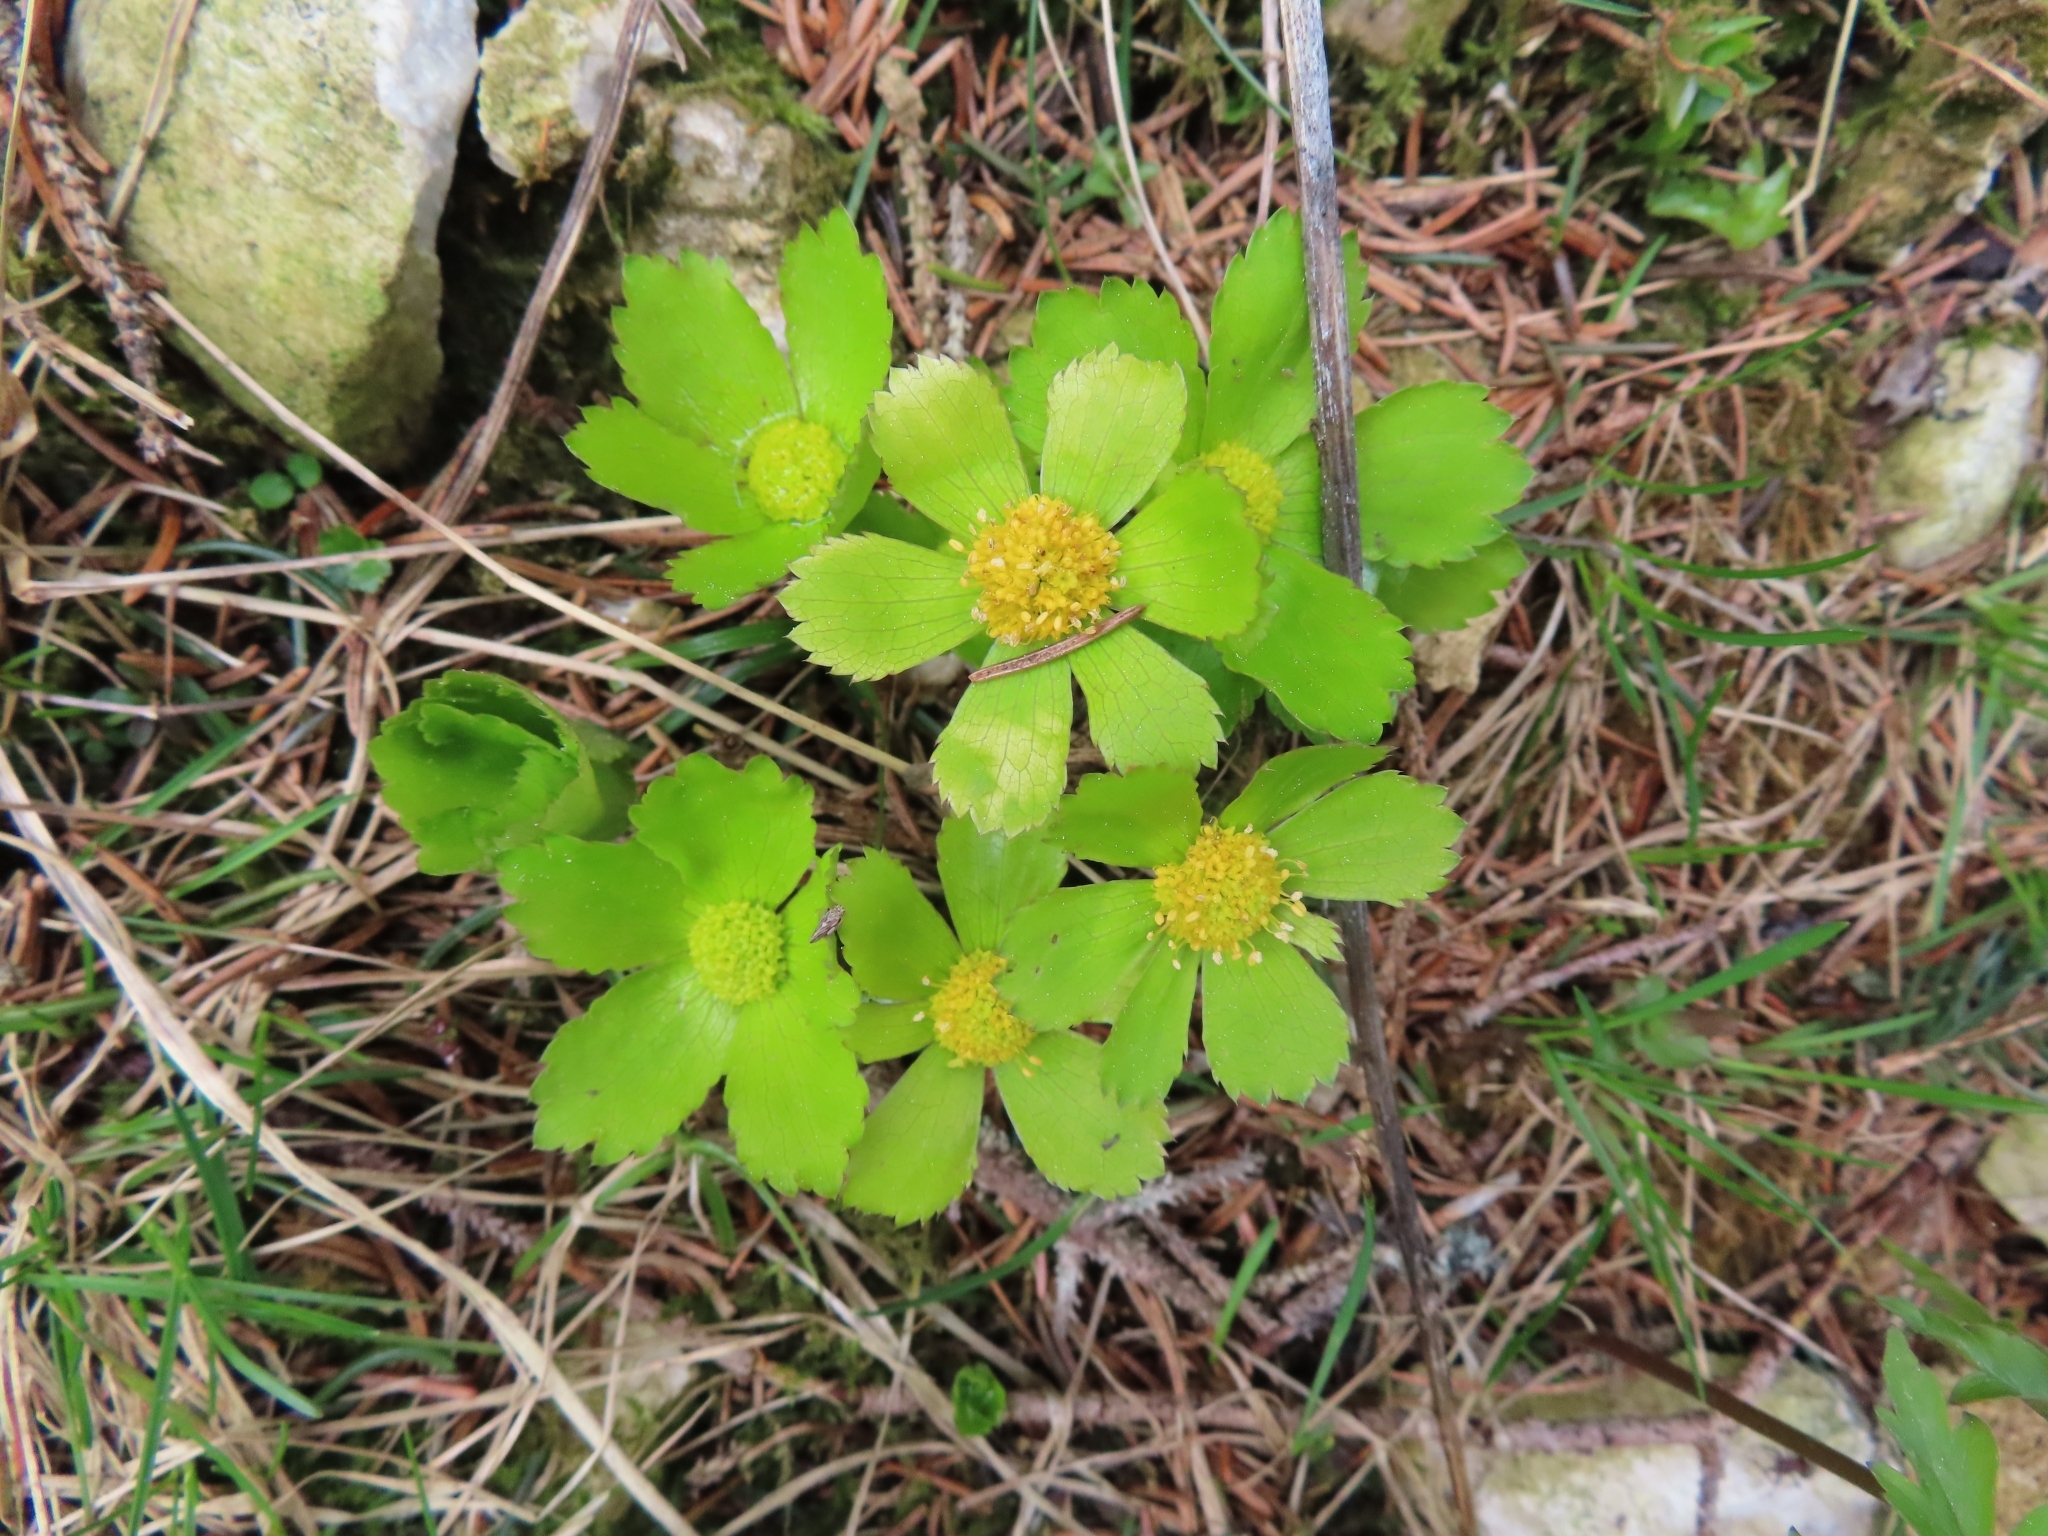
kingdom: Plantae
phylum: Tracheophyta
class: Magnoliopsida
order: Apiales
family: Apiaceae
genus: Sanicula
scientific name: Sanicula epipactis
